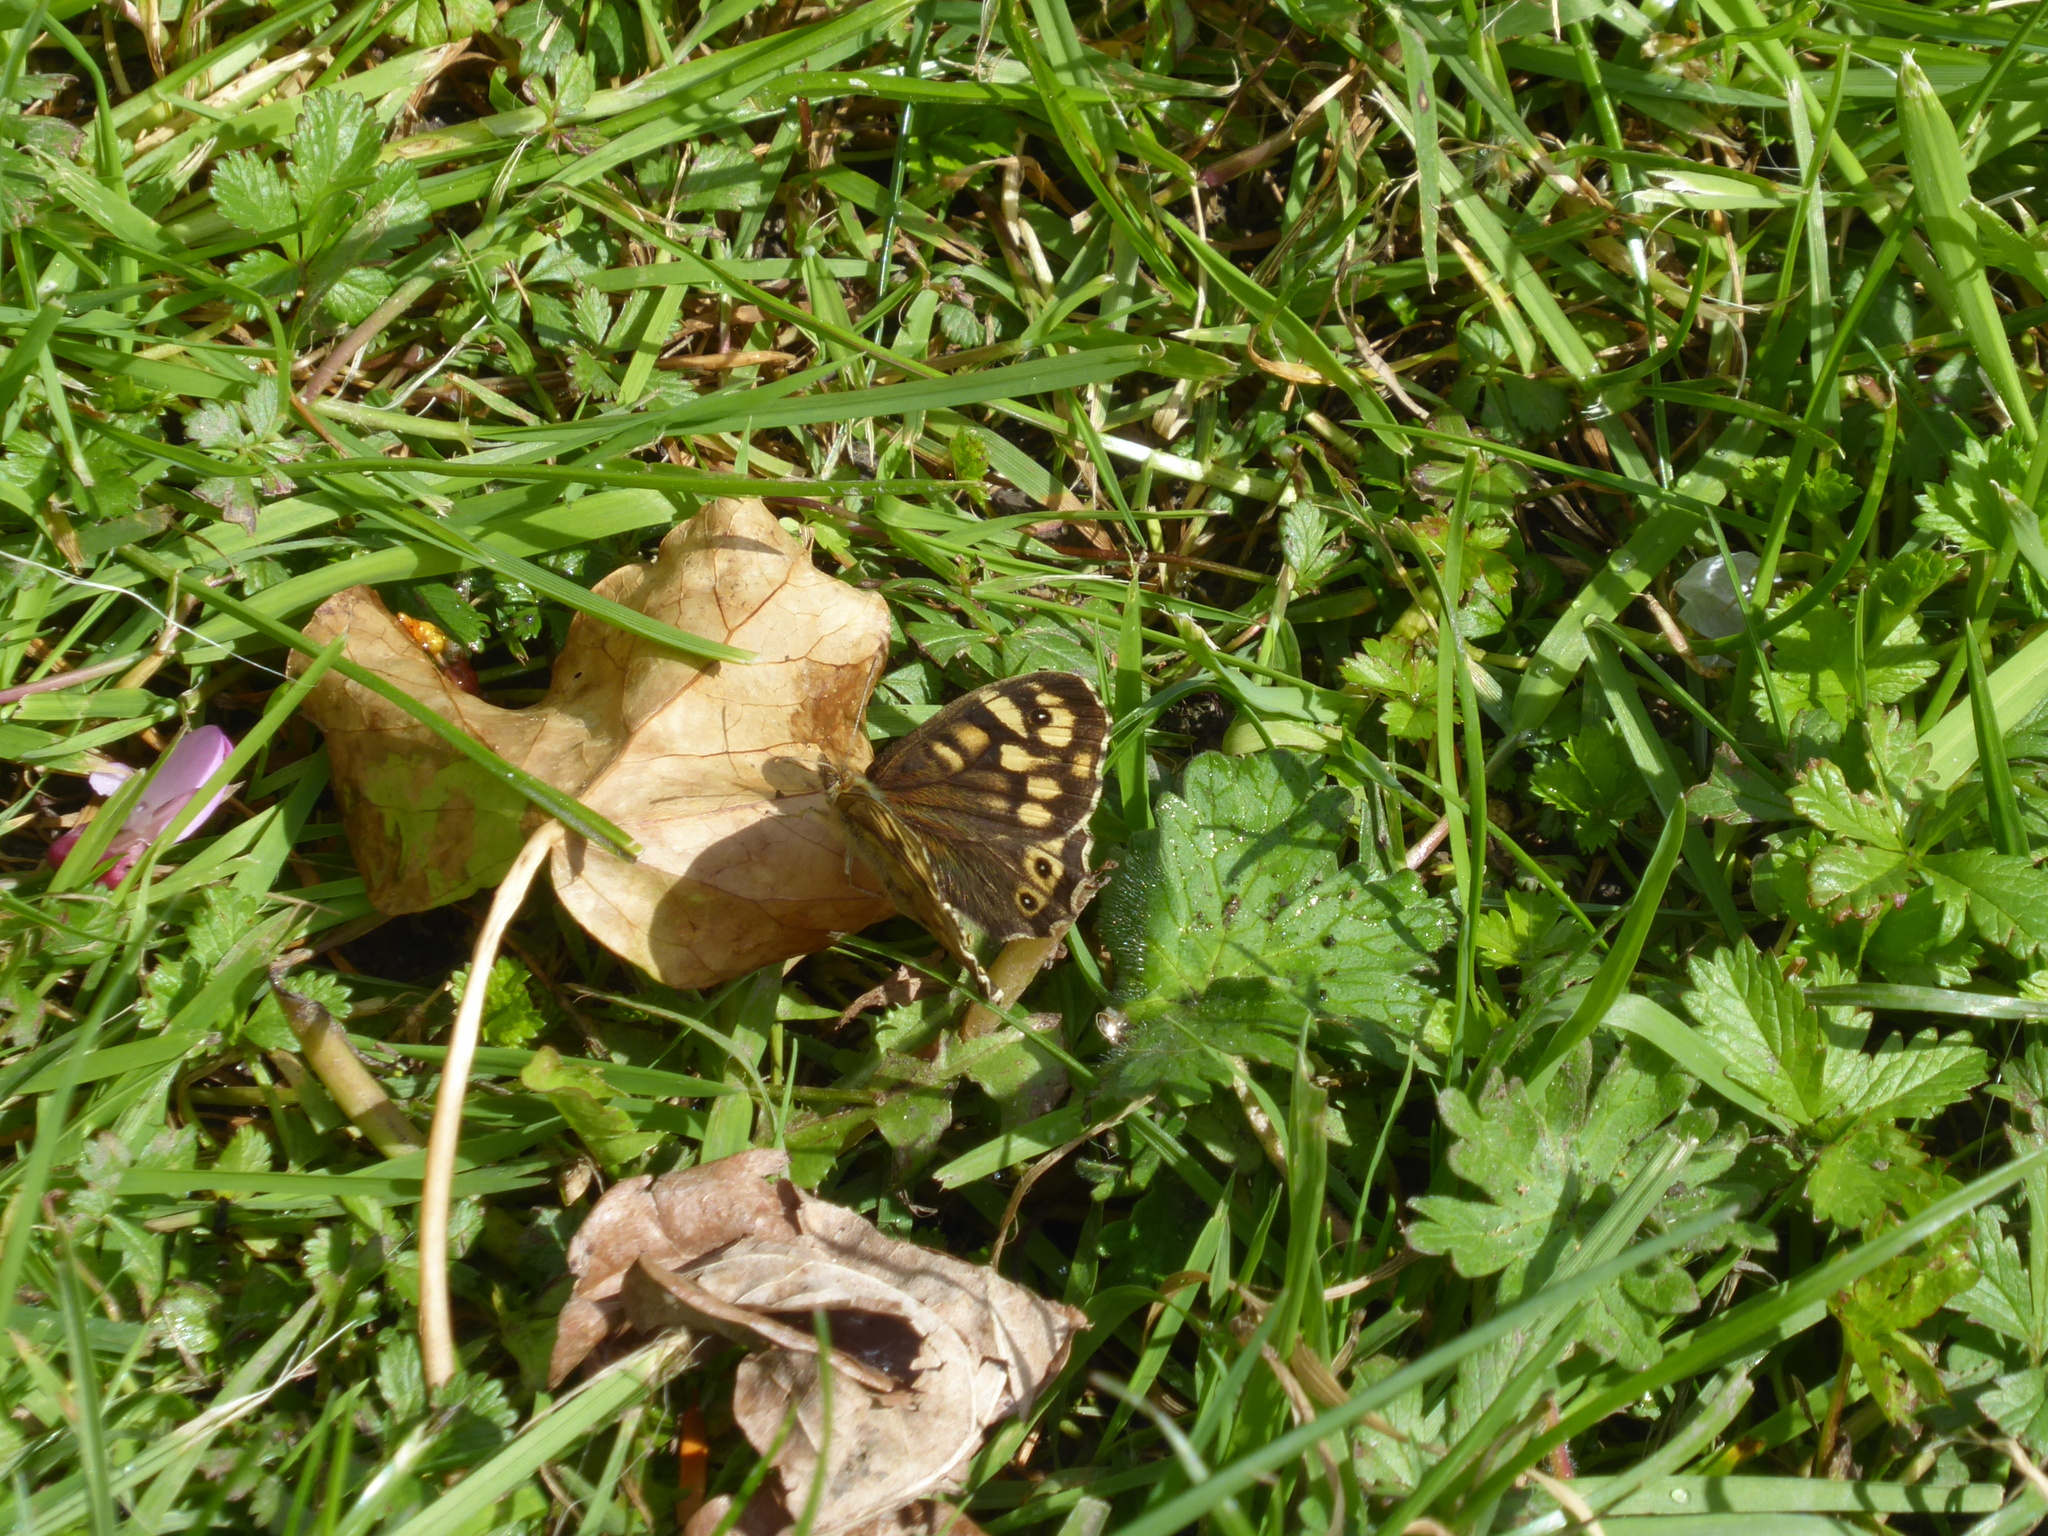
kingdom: Animalia
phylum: Arthropoda
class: Insecta
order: Lepidoptera
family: Nymphalidae
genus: Pararge
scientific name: Pararge aegeria
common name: Speckled wood
